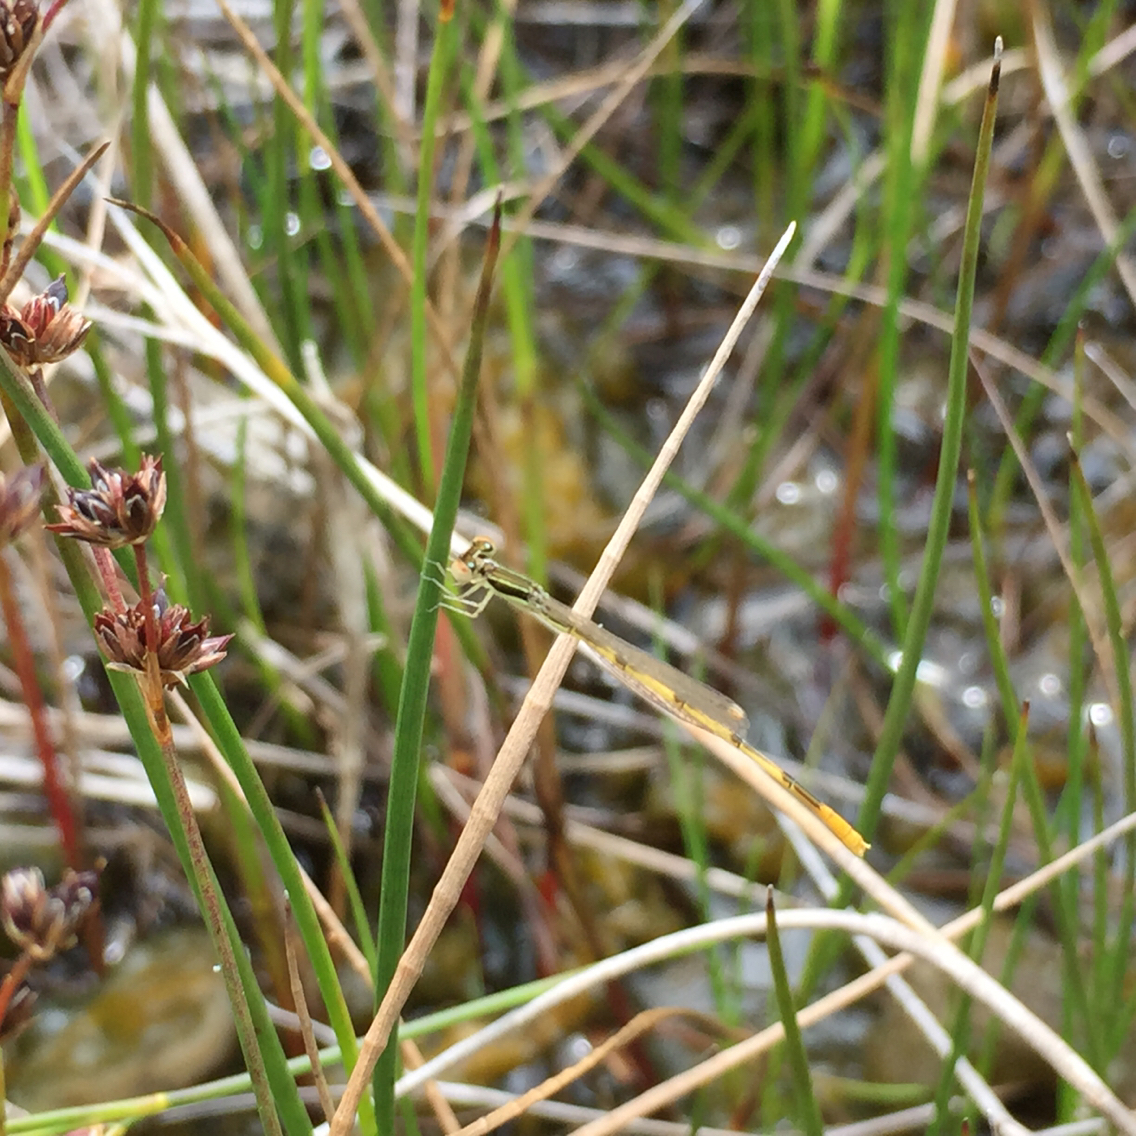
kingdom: Animalia
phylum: Arthropoda
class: Insecta
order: Odonata
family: Coenagrionidae
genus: Ischnura
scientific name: Ischnura hastata
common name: Citrine forktail
